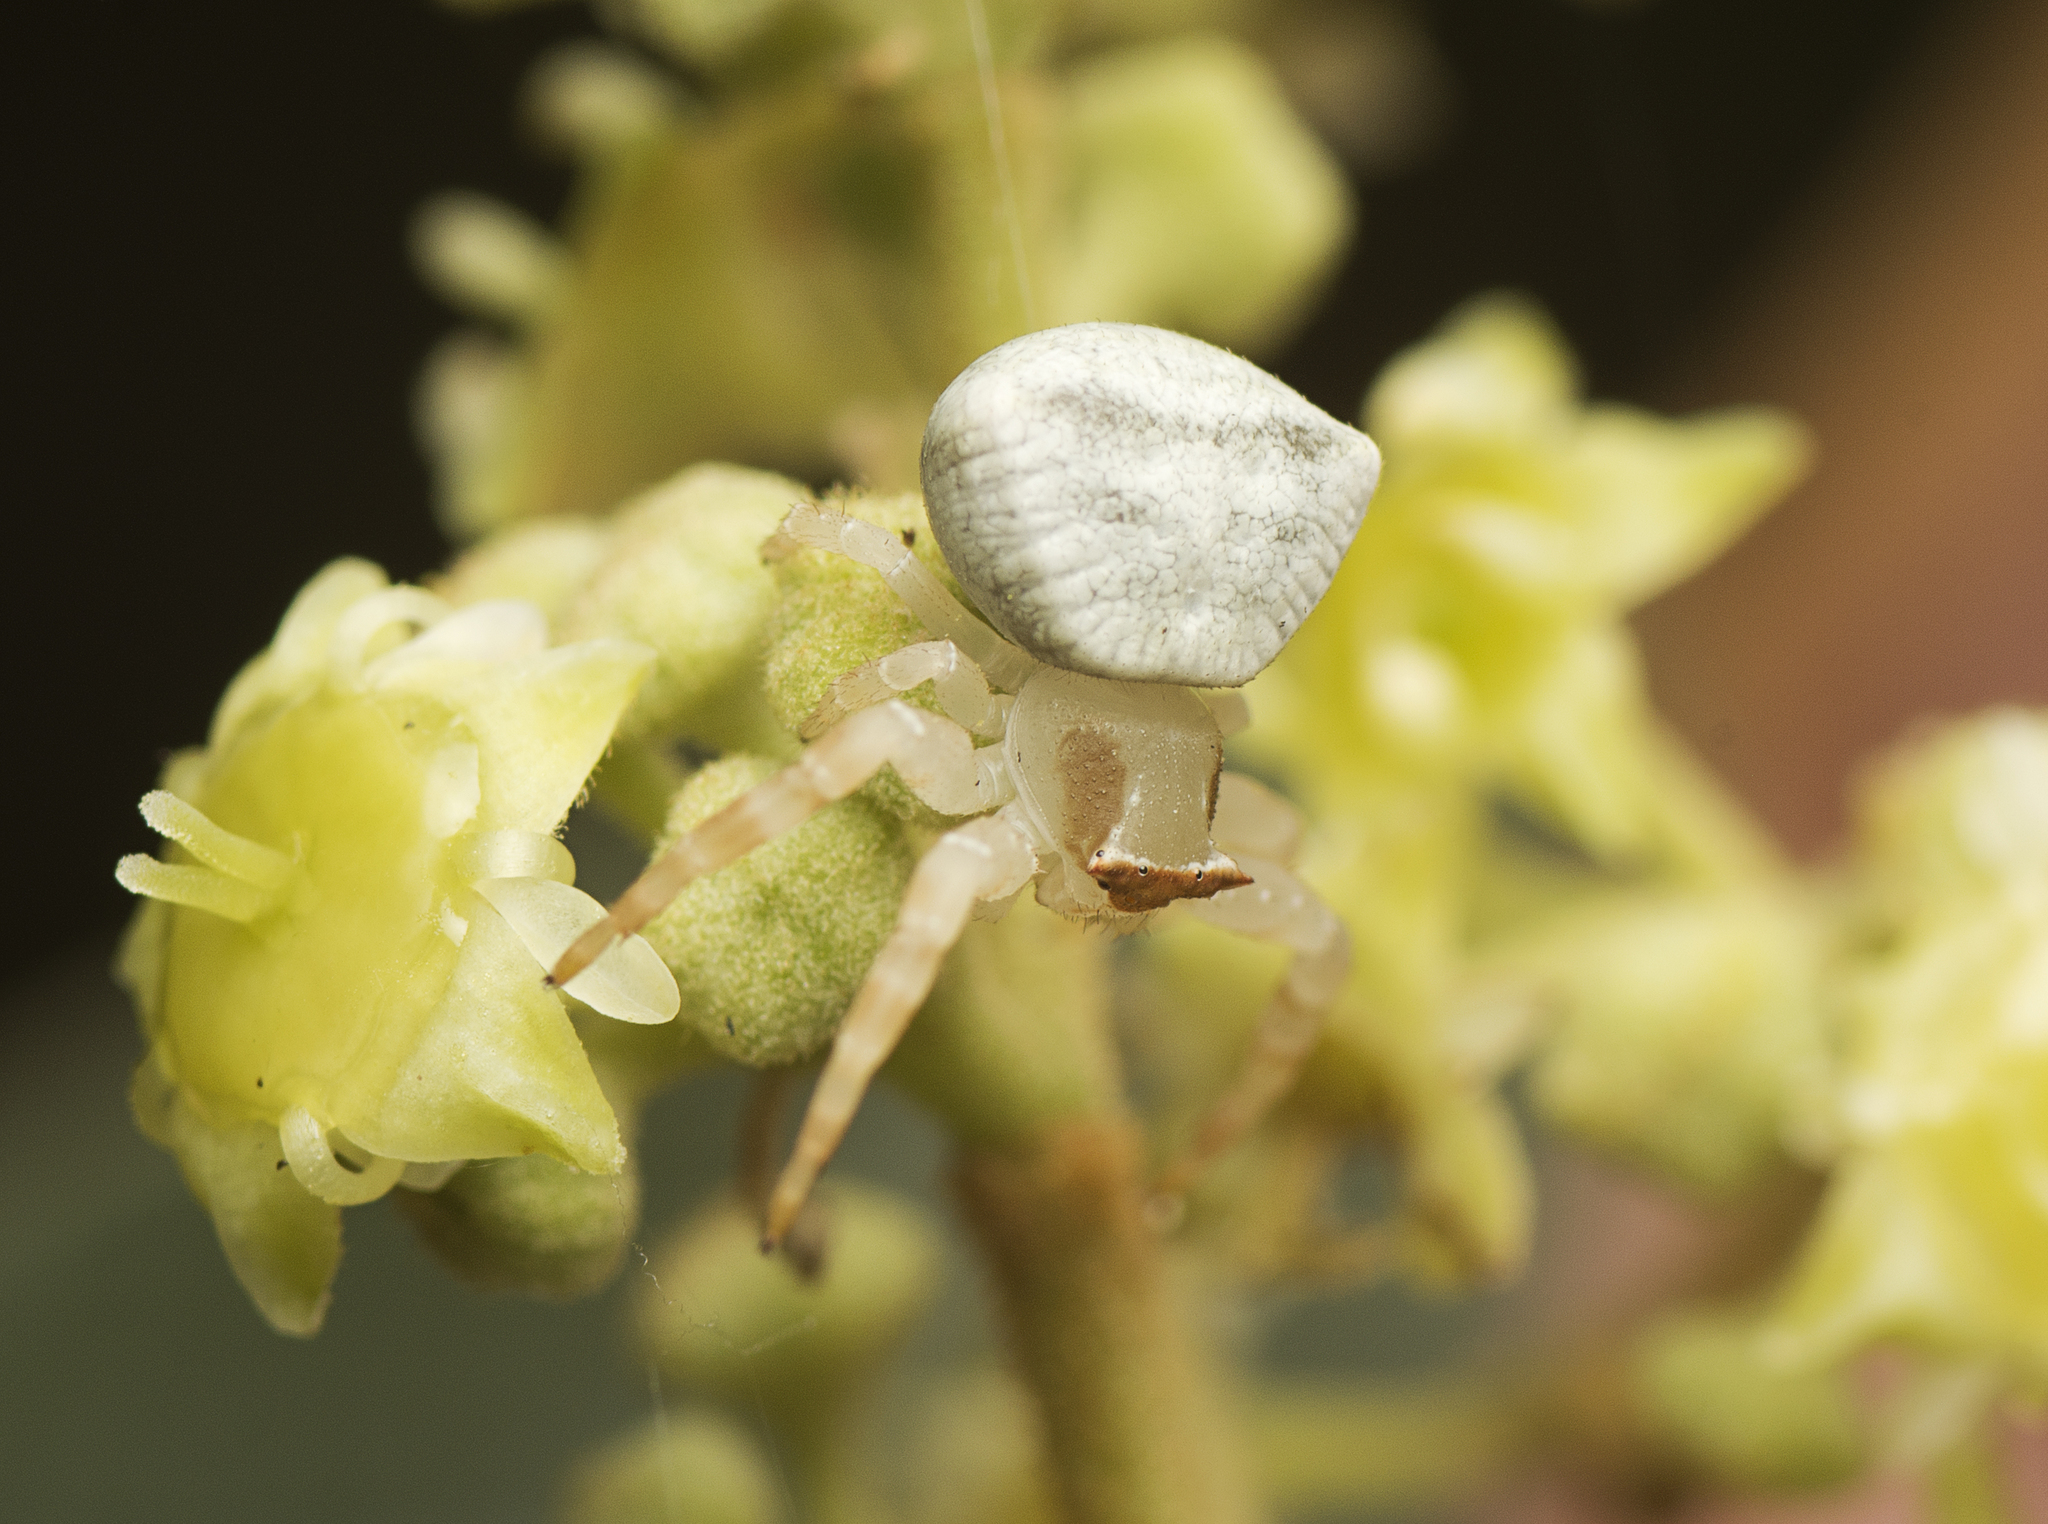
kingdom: Animalia
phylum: Arthropoda
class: Arachnida
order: Araneae
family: Thomisidae
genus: Thomisus
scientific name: Thomisus spectabilis
